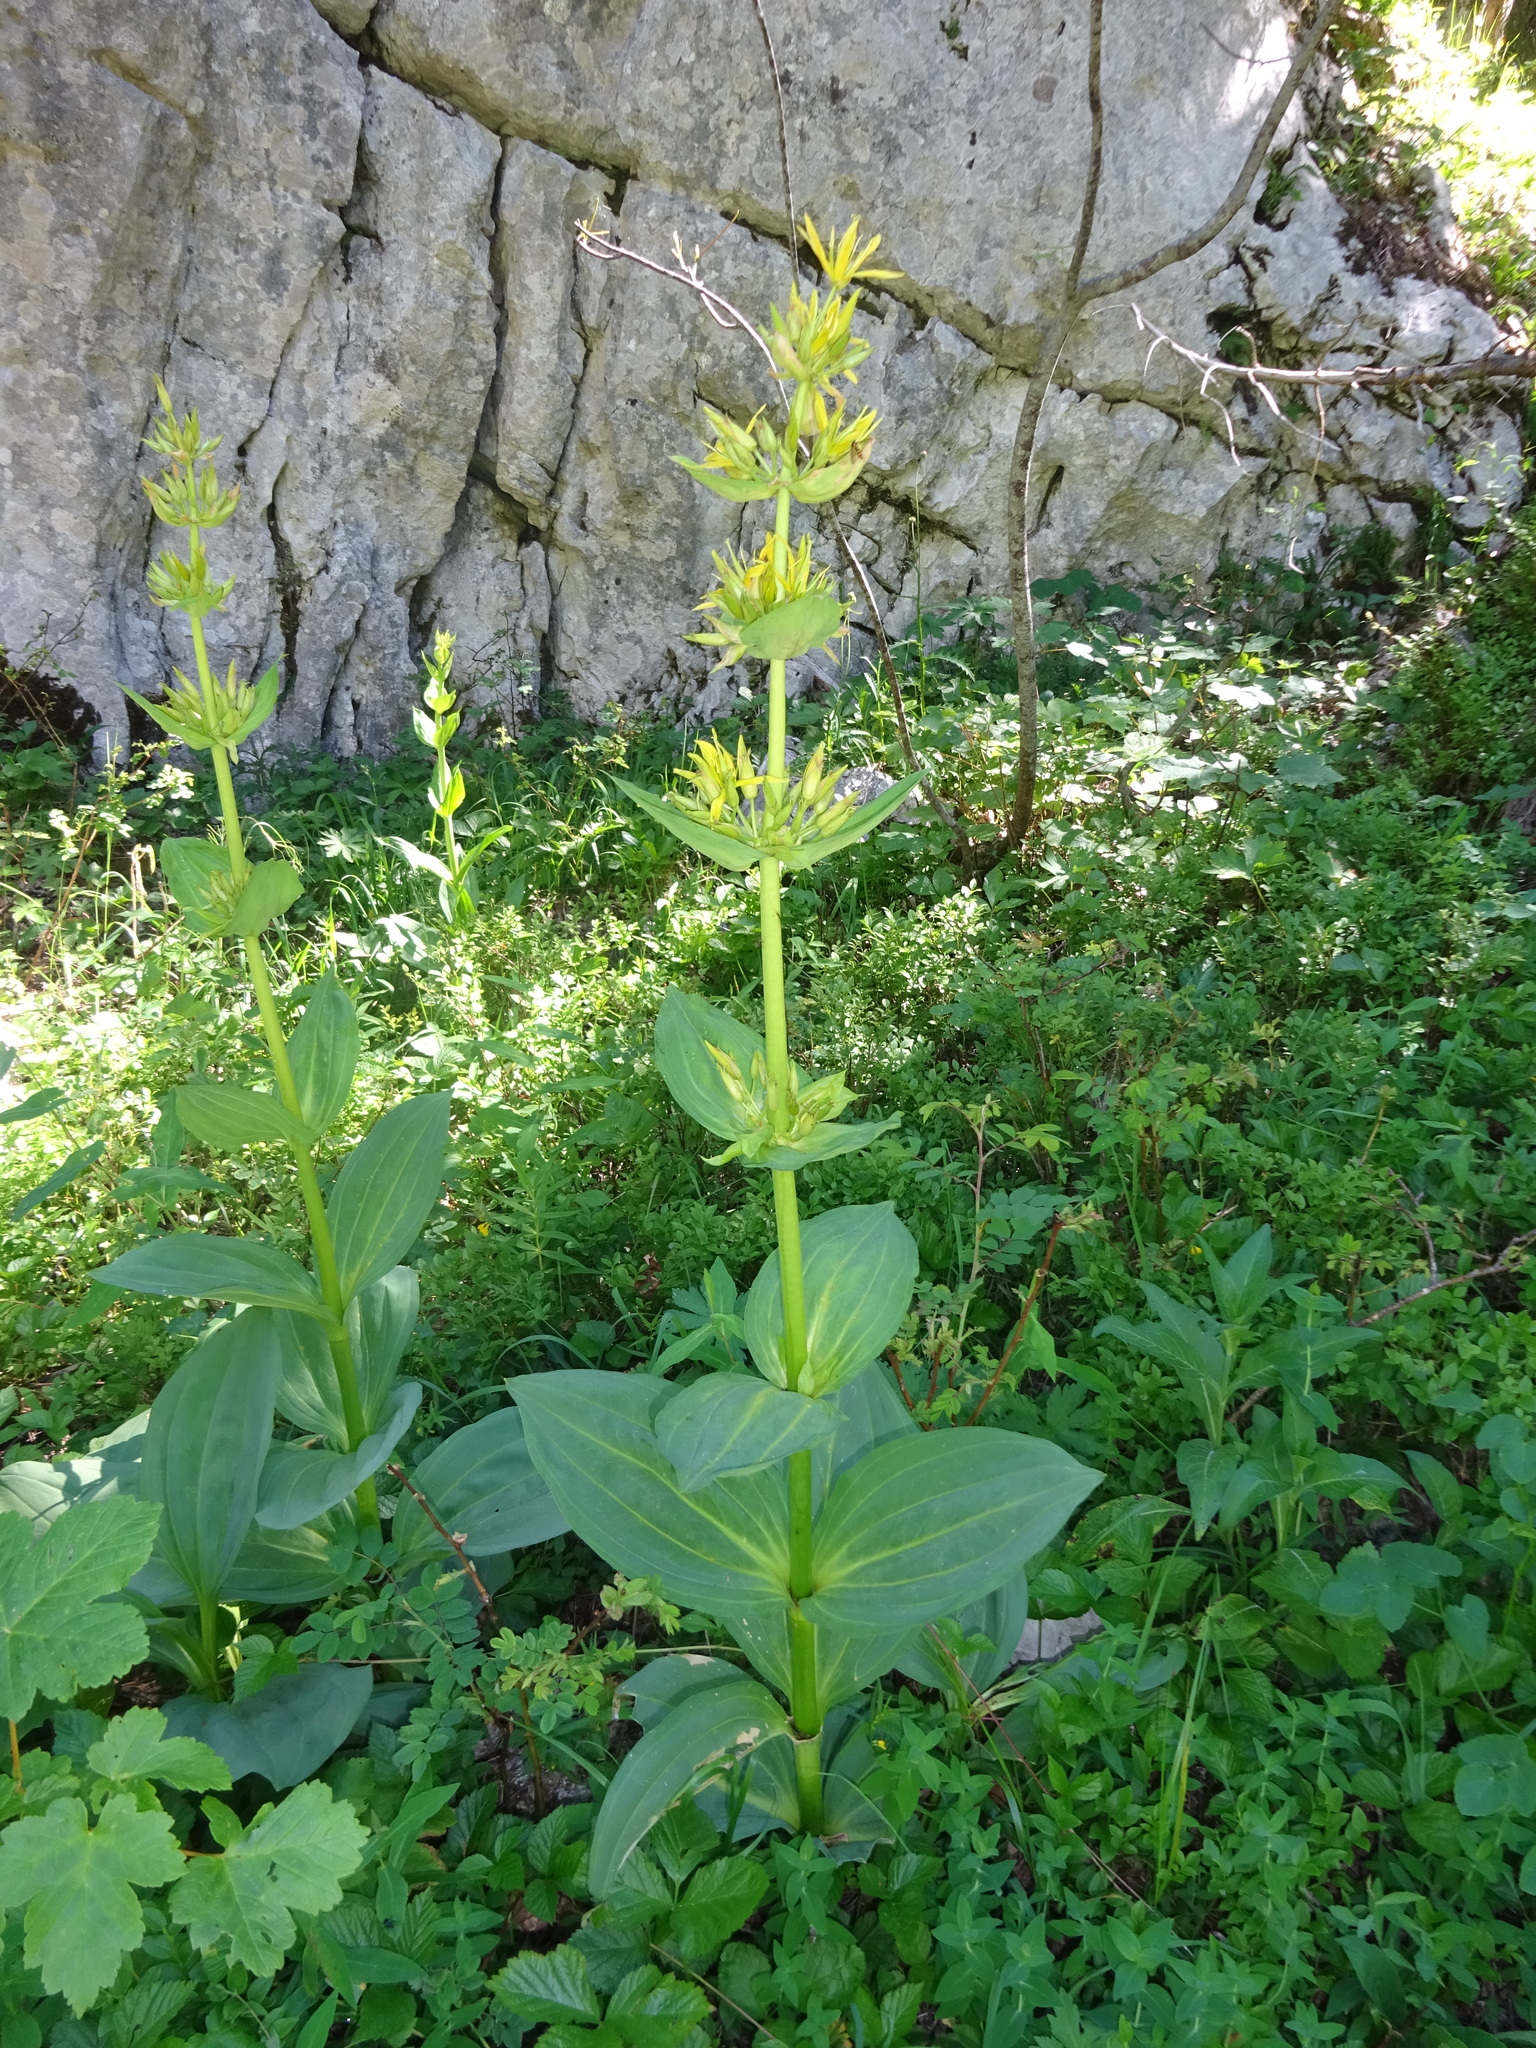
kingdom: Plantae
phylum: Tracheophyta
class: Magnoliopsida
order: Gentianales
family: Gentianaceae
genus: Gentiana
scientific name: Gentiana lutea
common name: Great yellow gentian
